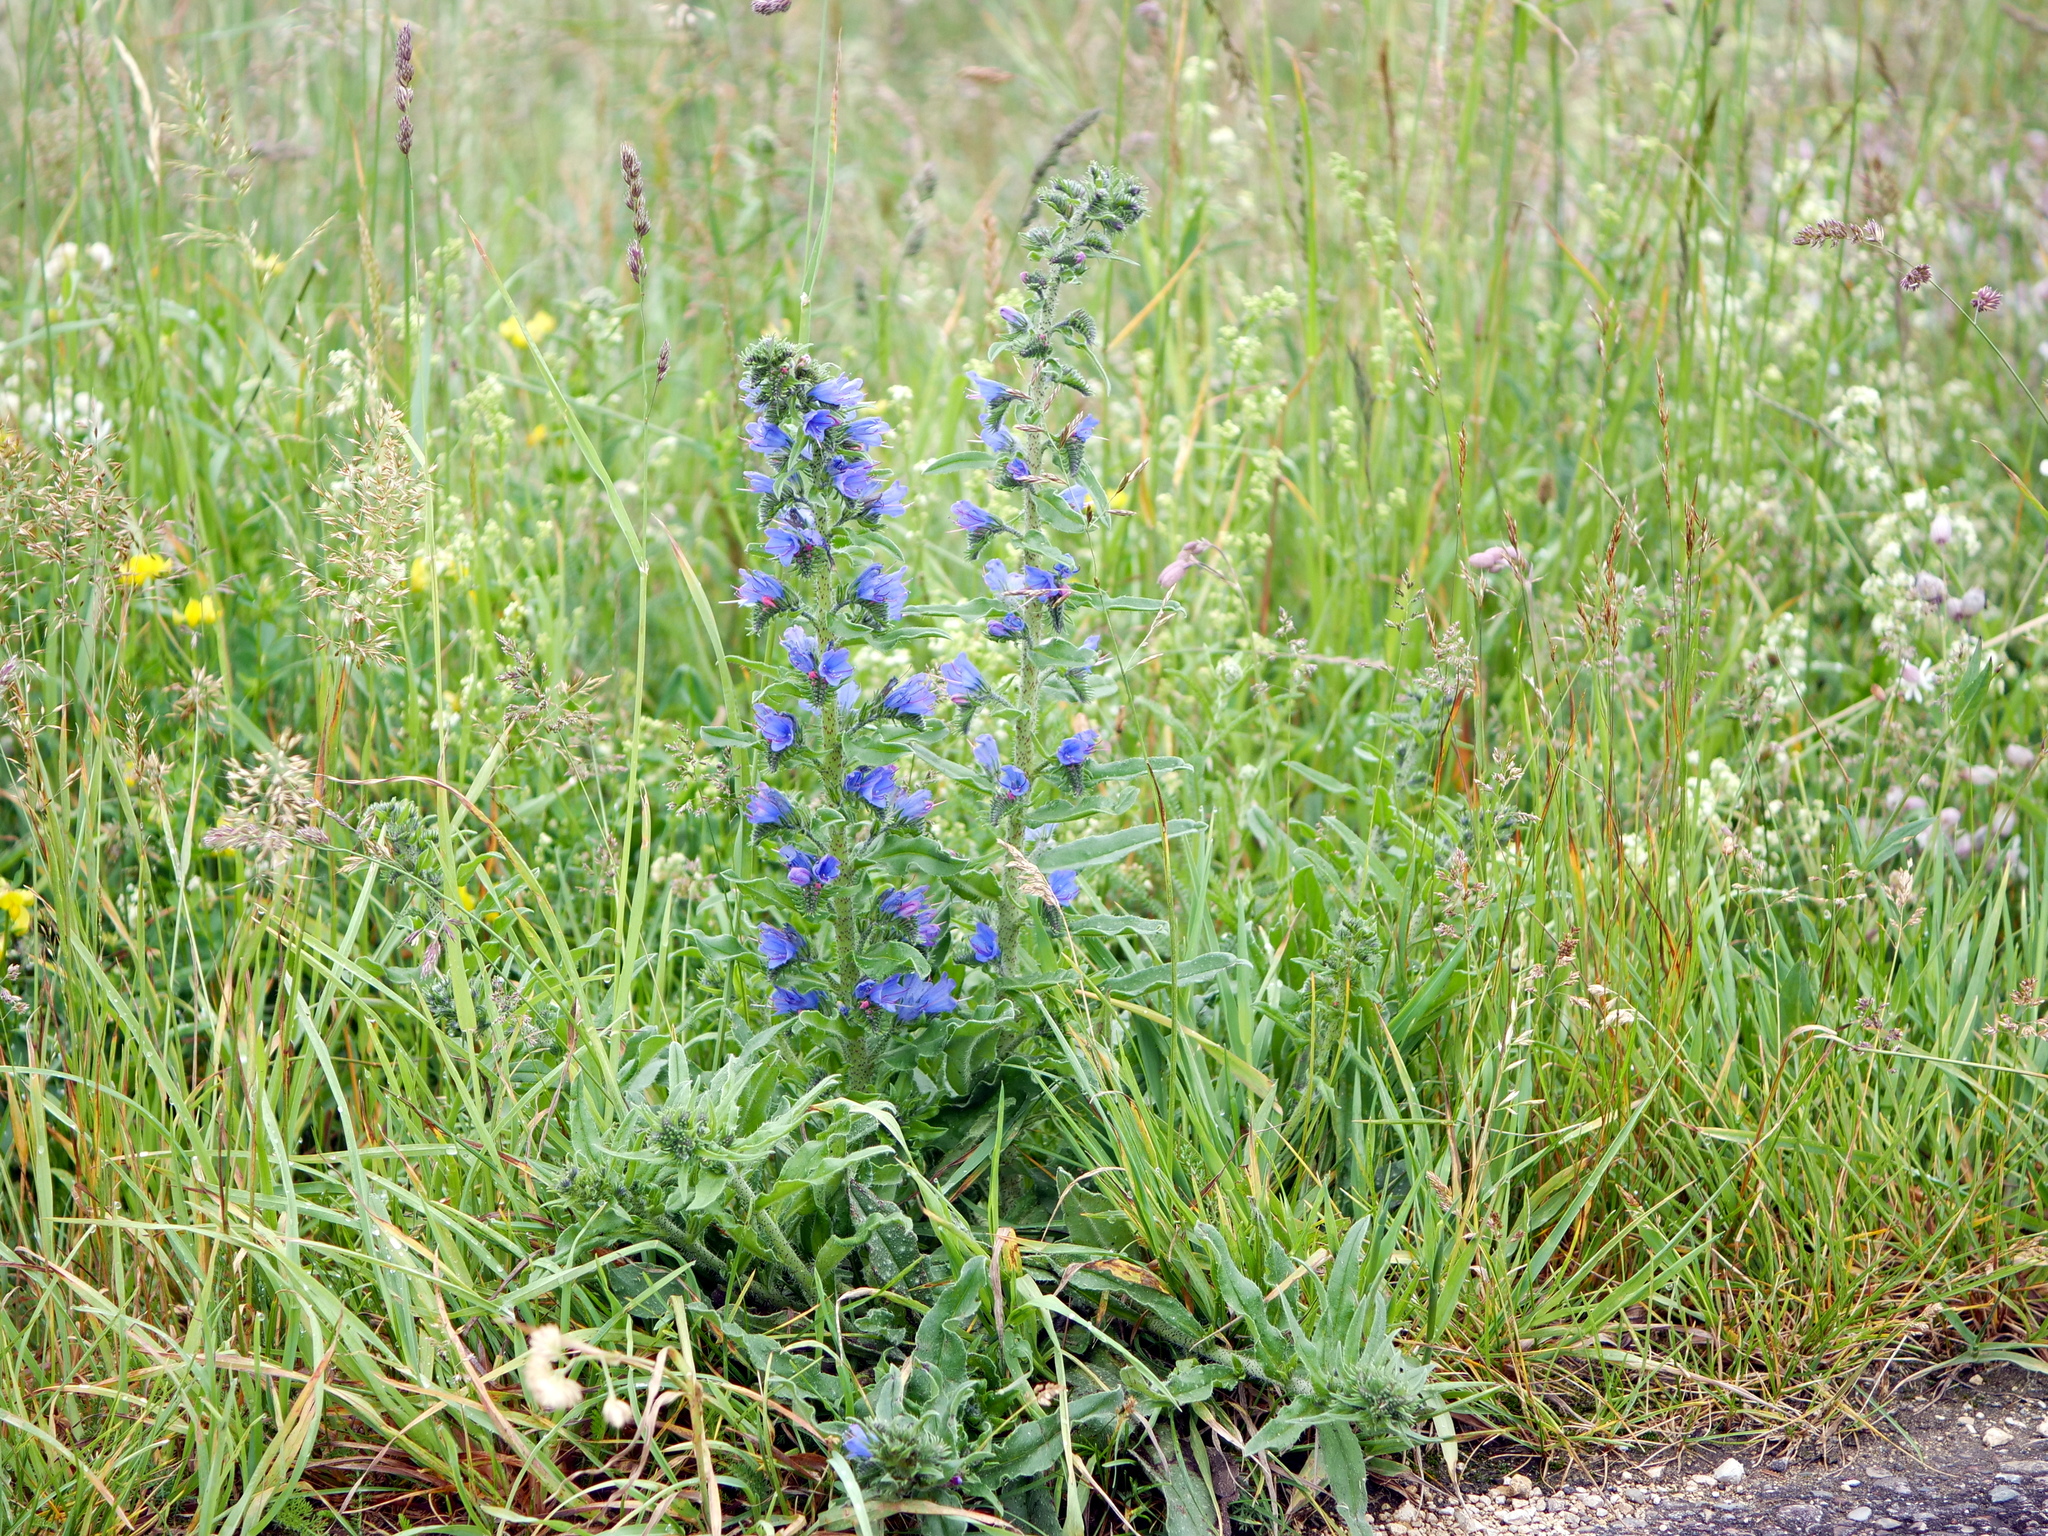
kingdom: Plantae
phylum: Tracheophyta
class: Magnoliopsida
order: Boraginales
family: Boraginaceae
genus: Echium
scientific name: Echium vulgare
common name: Common viper's bugloss
